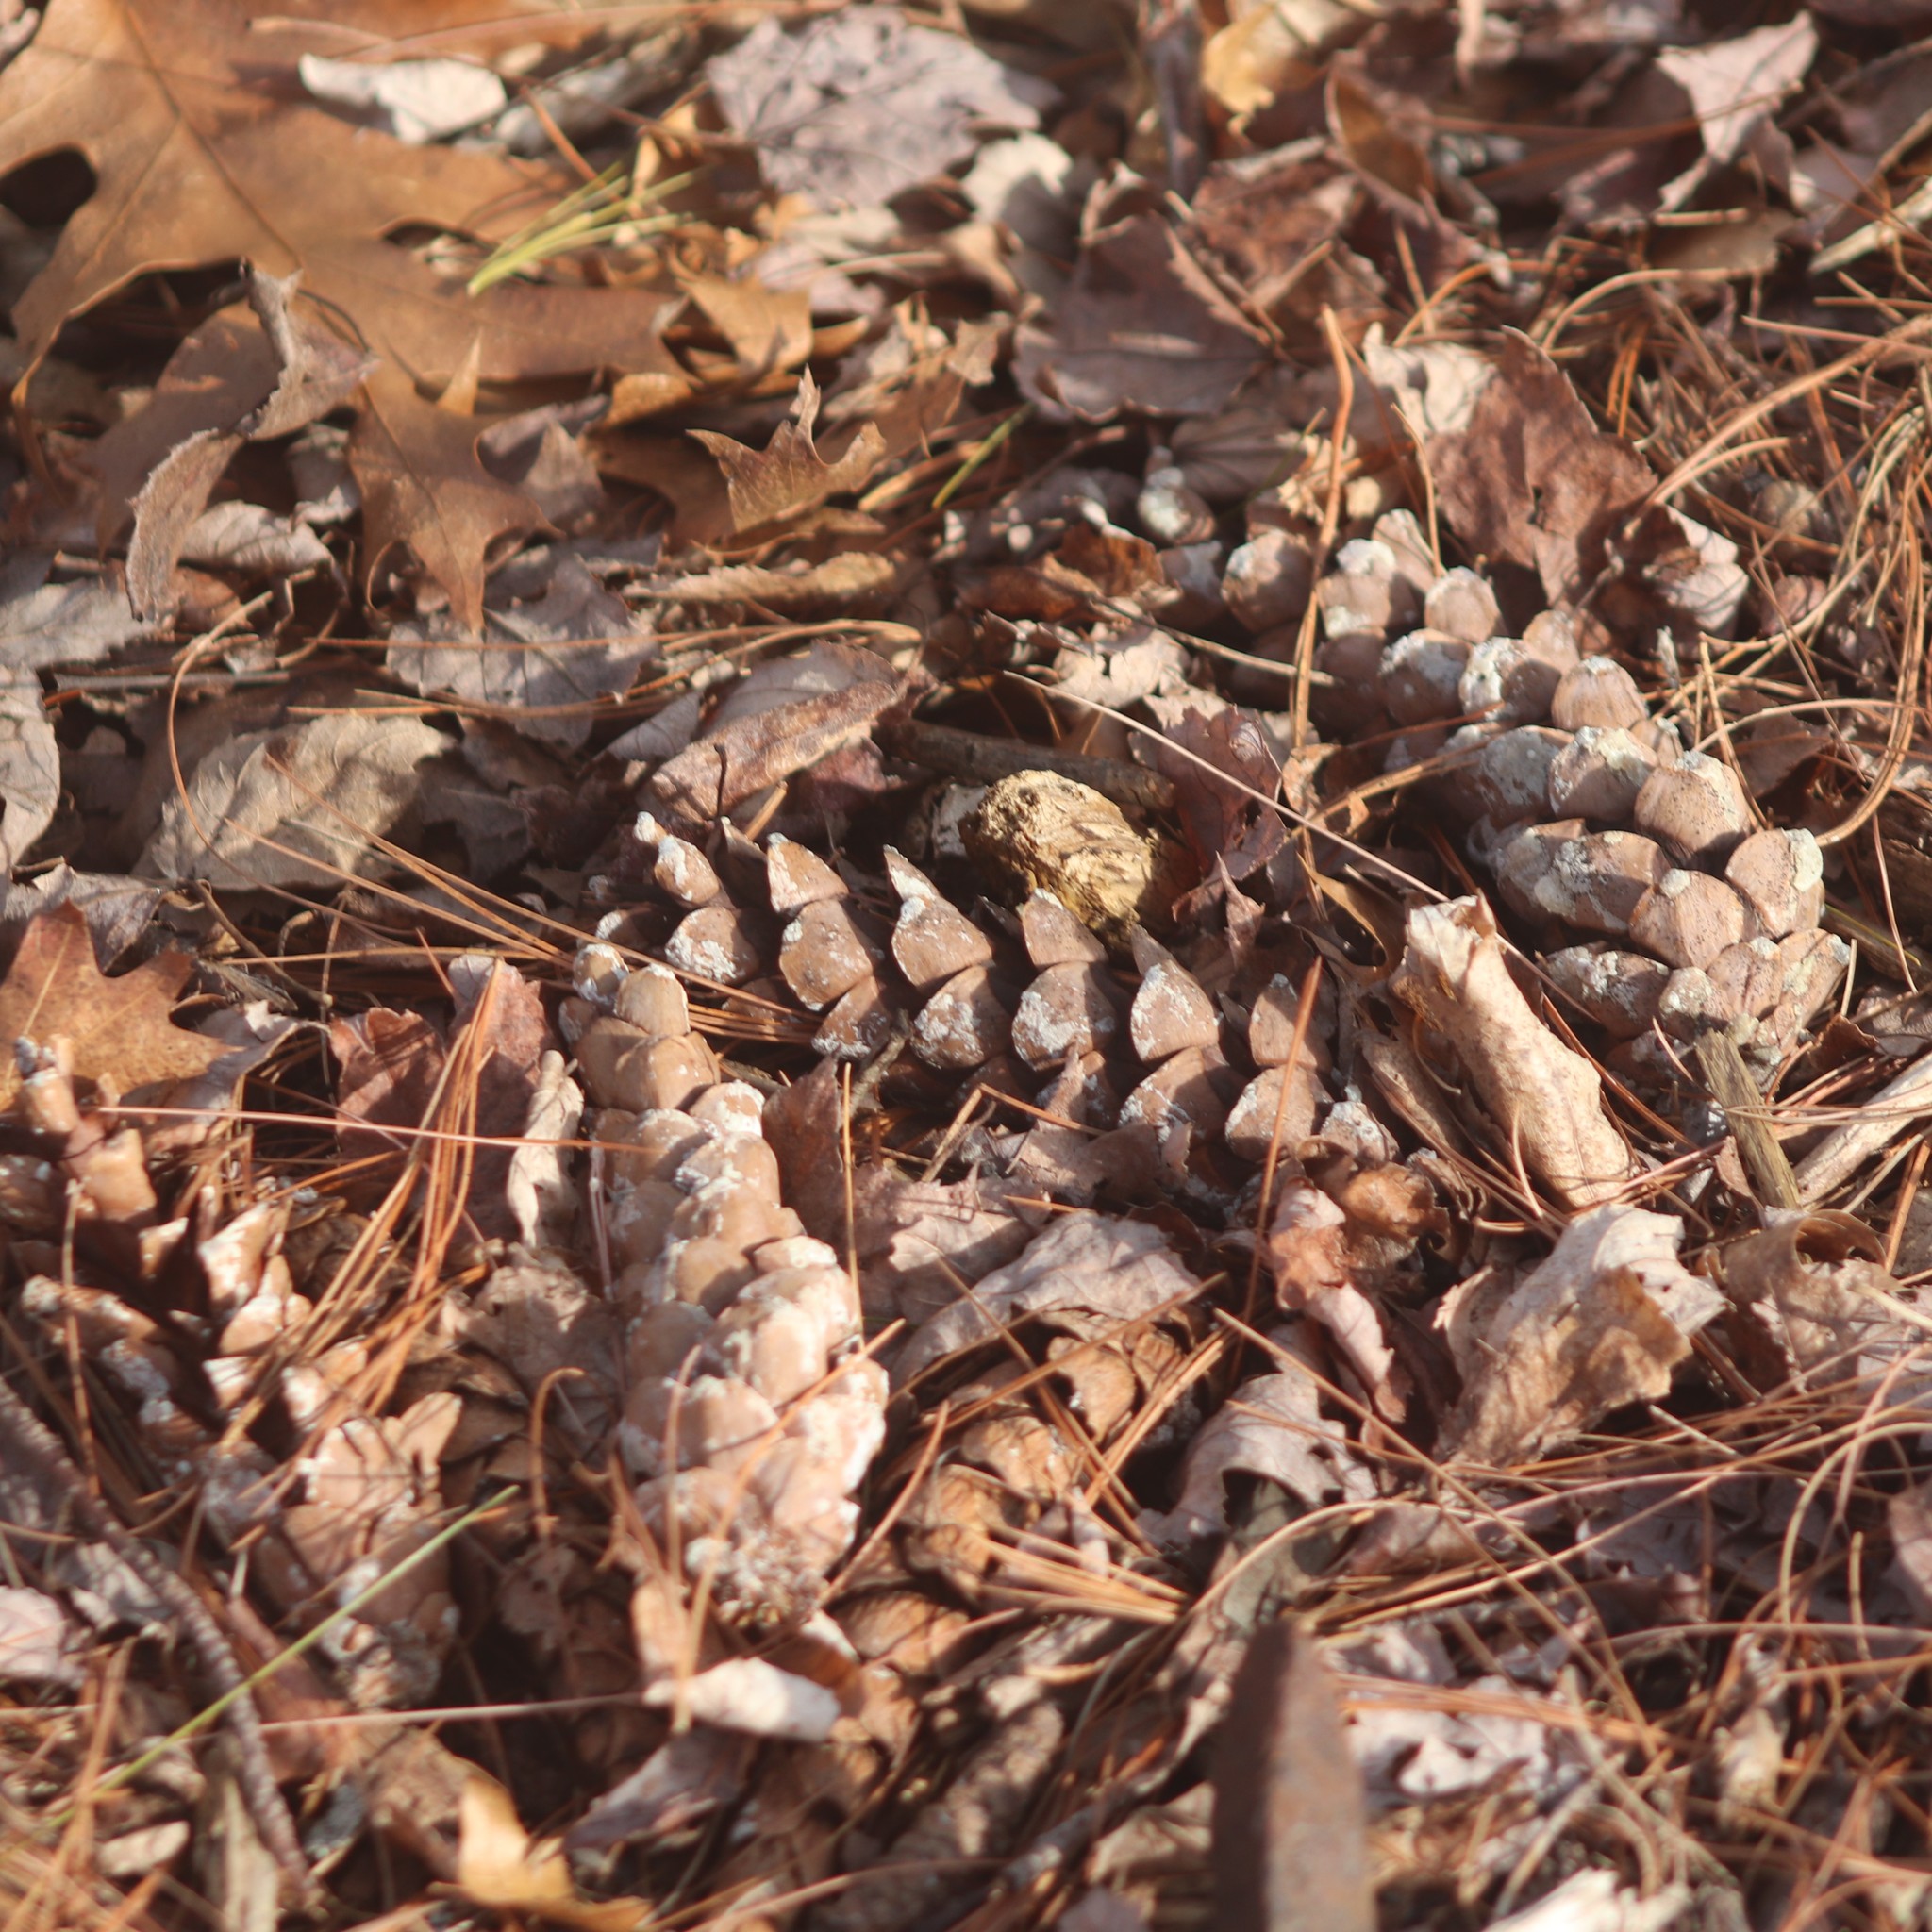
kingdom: Plantae
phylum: Tracheophyta
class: Pinopsida
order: Pinales
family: Pinaceae
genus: Pinus
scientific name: Pinus strobus
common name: Weymouth pine
